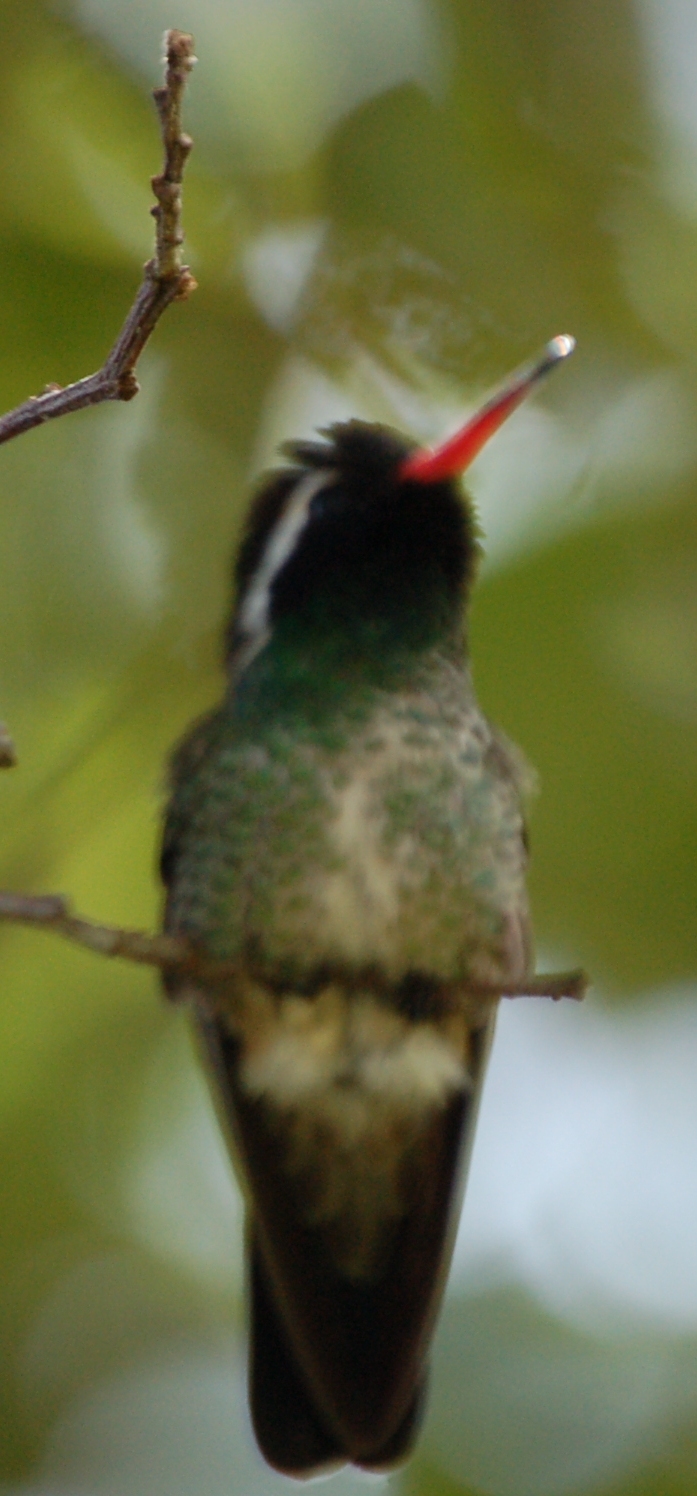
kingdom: Animalia
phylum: Chordata
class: Aves
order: Apodiformes
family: Trochilidae
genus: Basilinna
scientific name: Basilinna leucotis
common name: White-eared hummingbird
